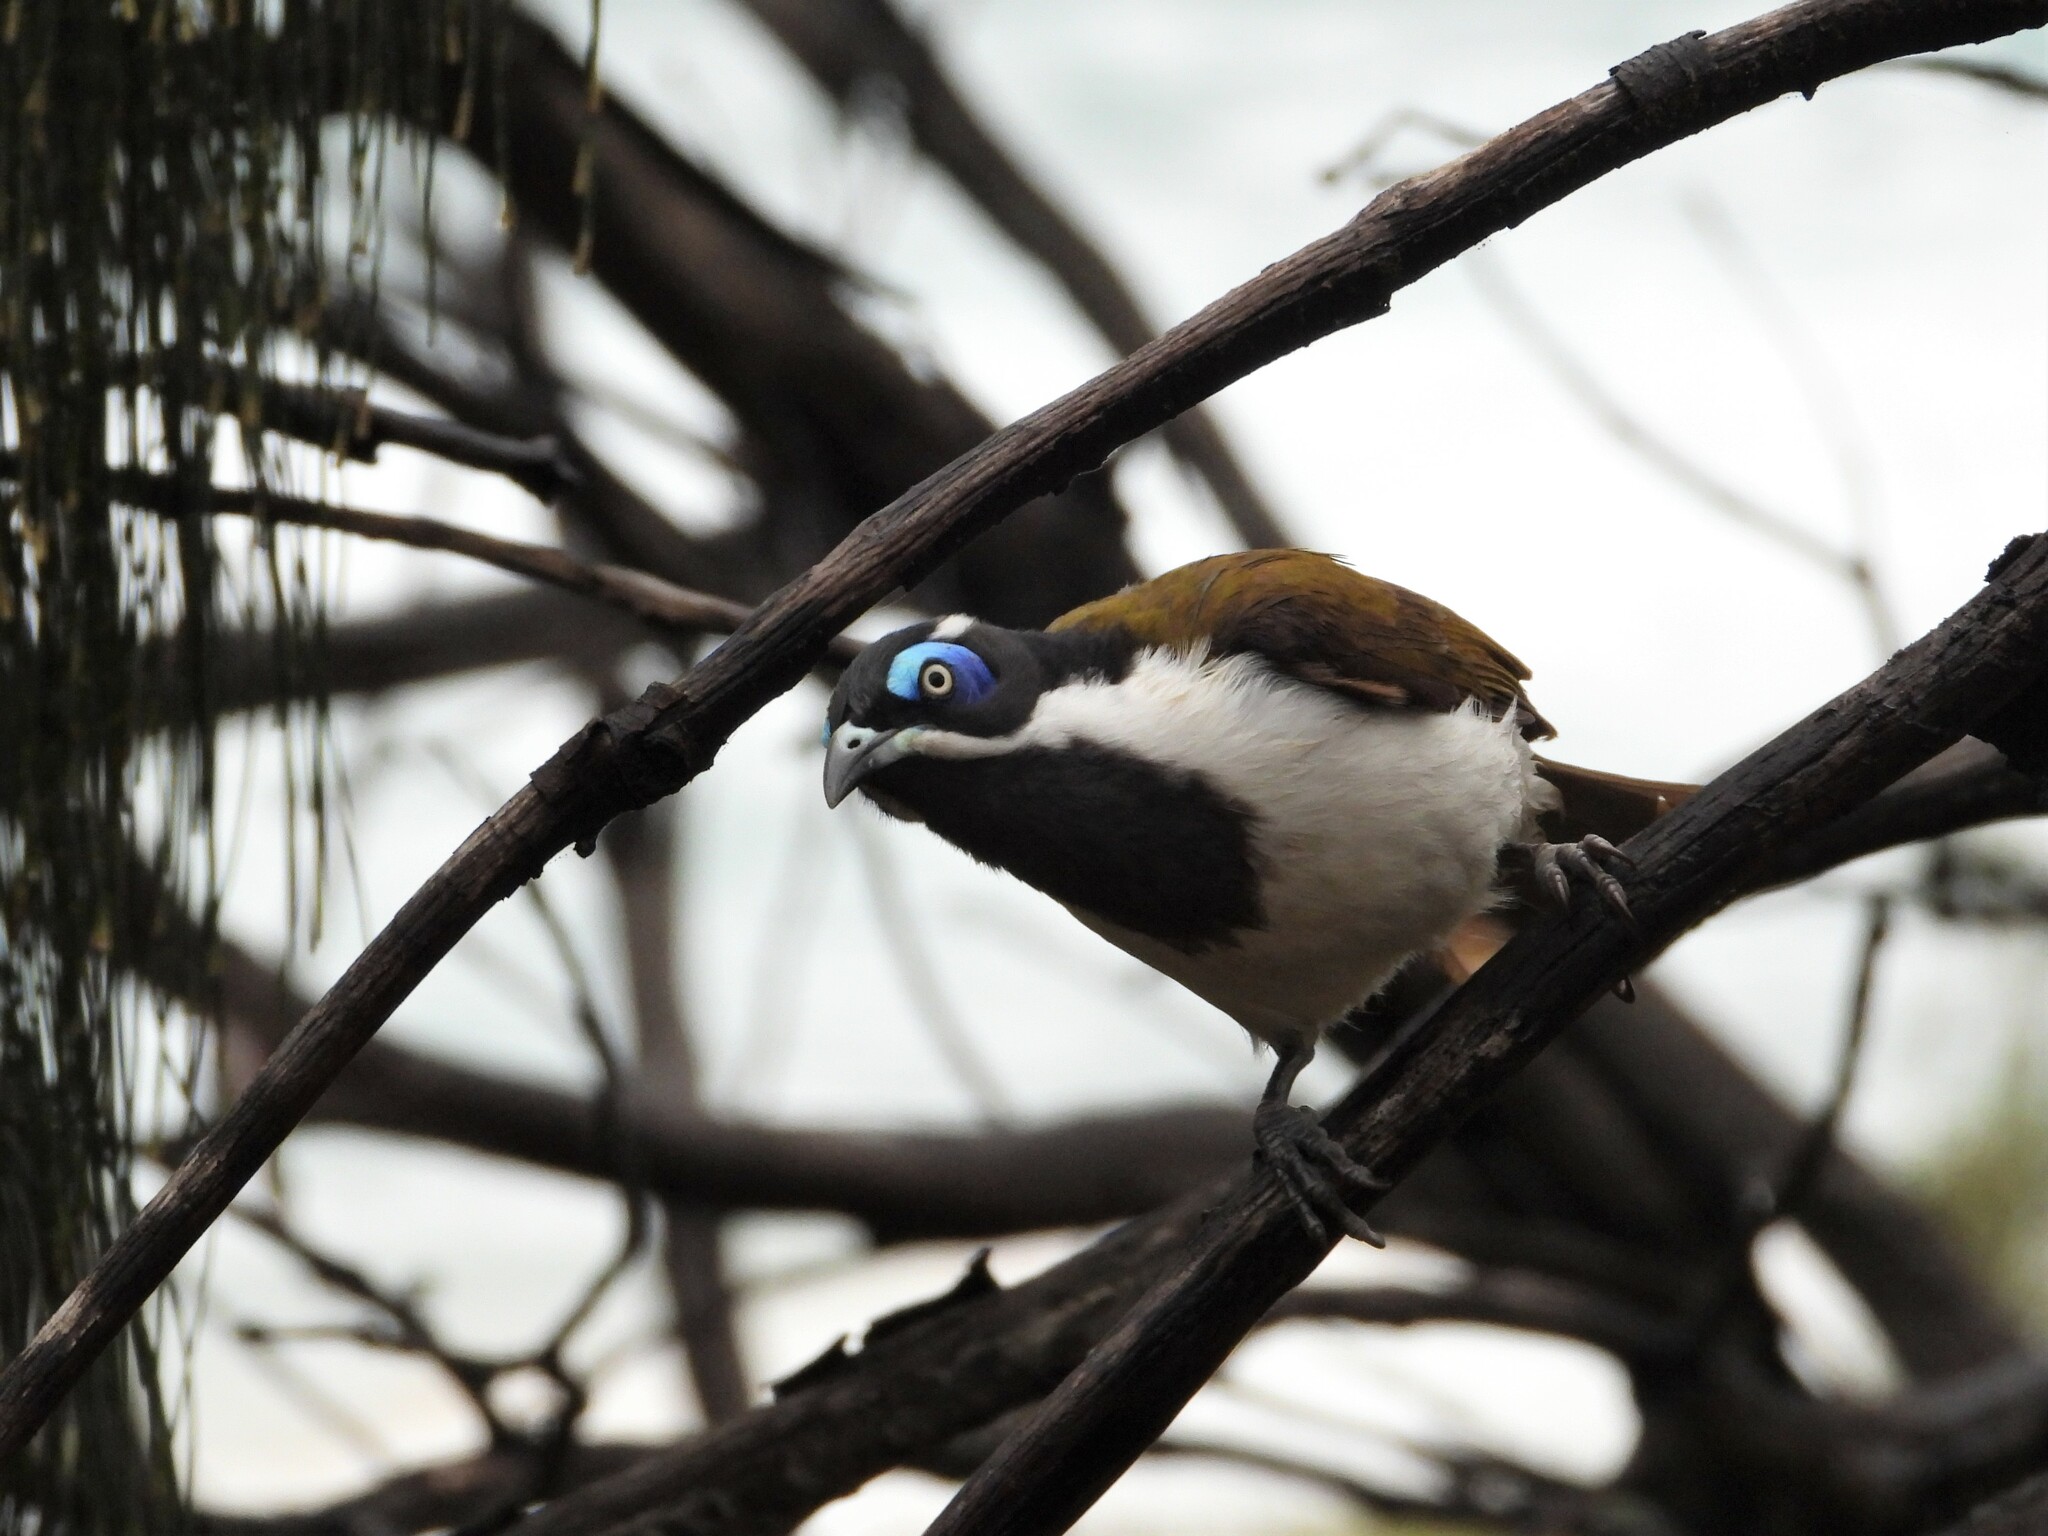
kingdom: Animalia
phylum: Chordata
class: Aves
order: Passeriformes
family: Meliphagidae
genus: Entomyzon
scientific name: Entomyzon cyanotis
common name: Blue-faced honeyeater
